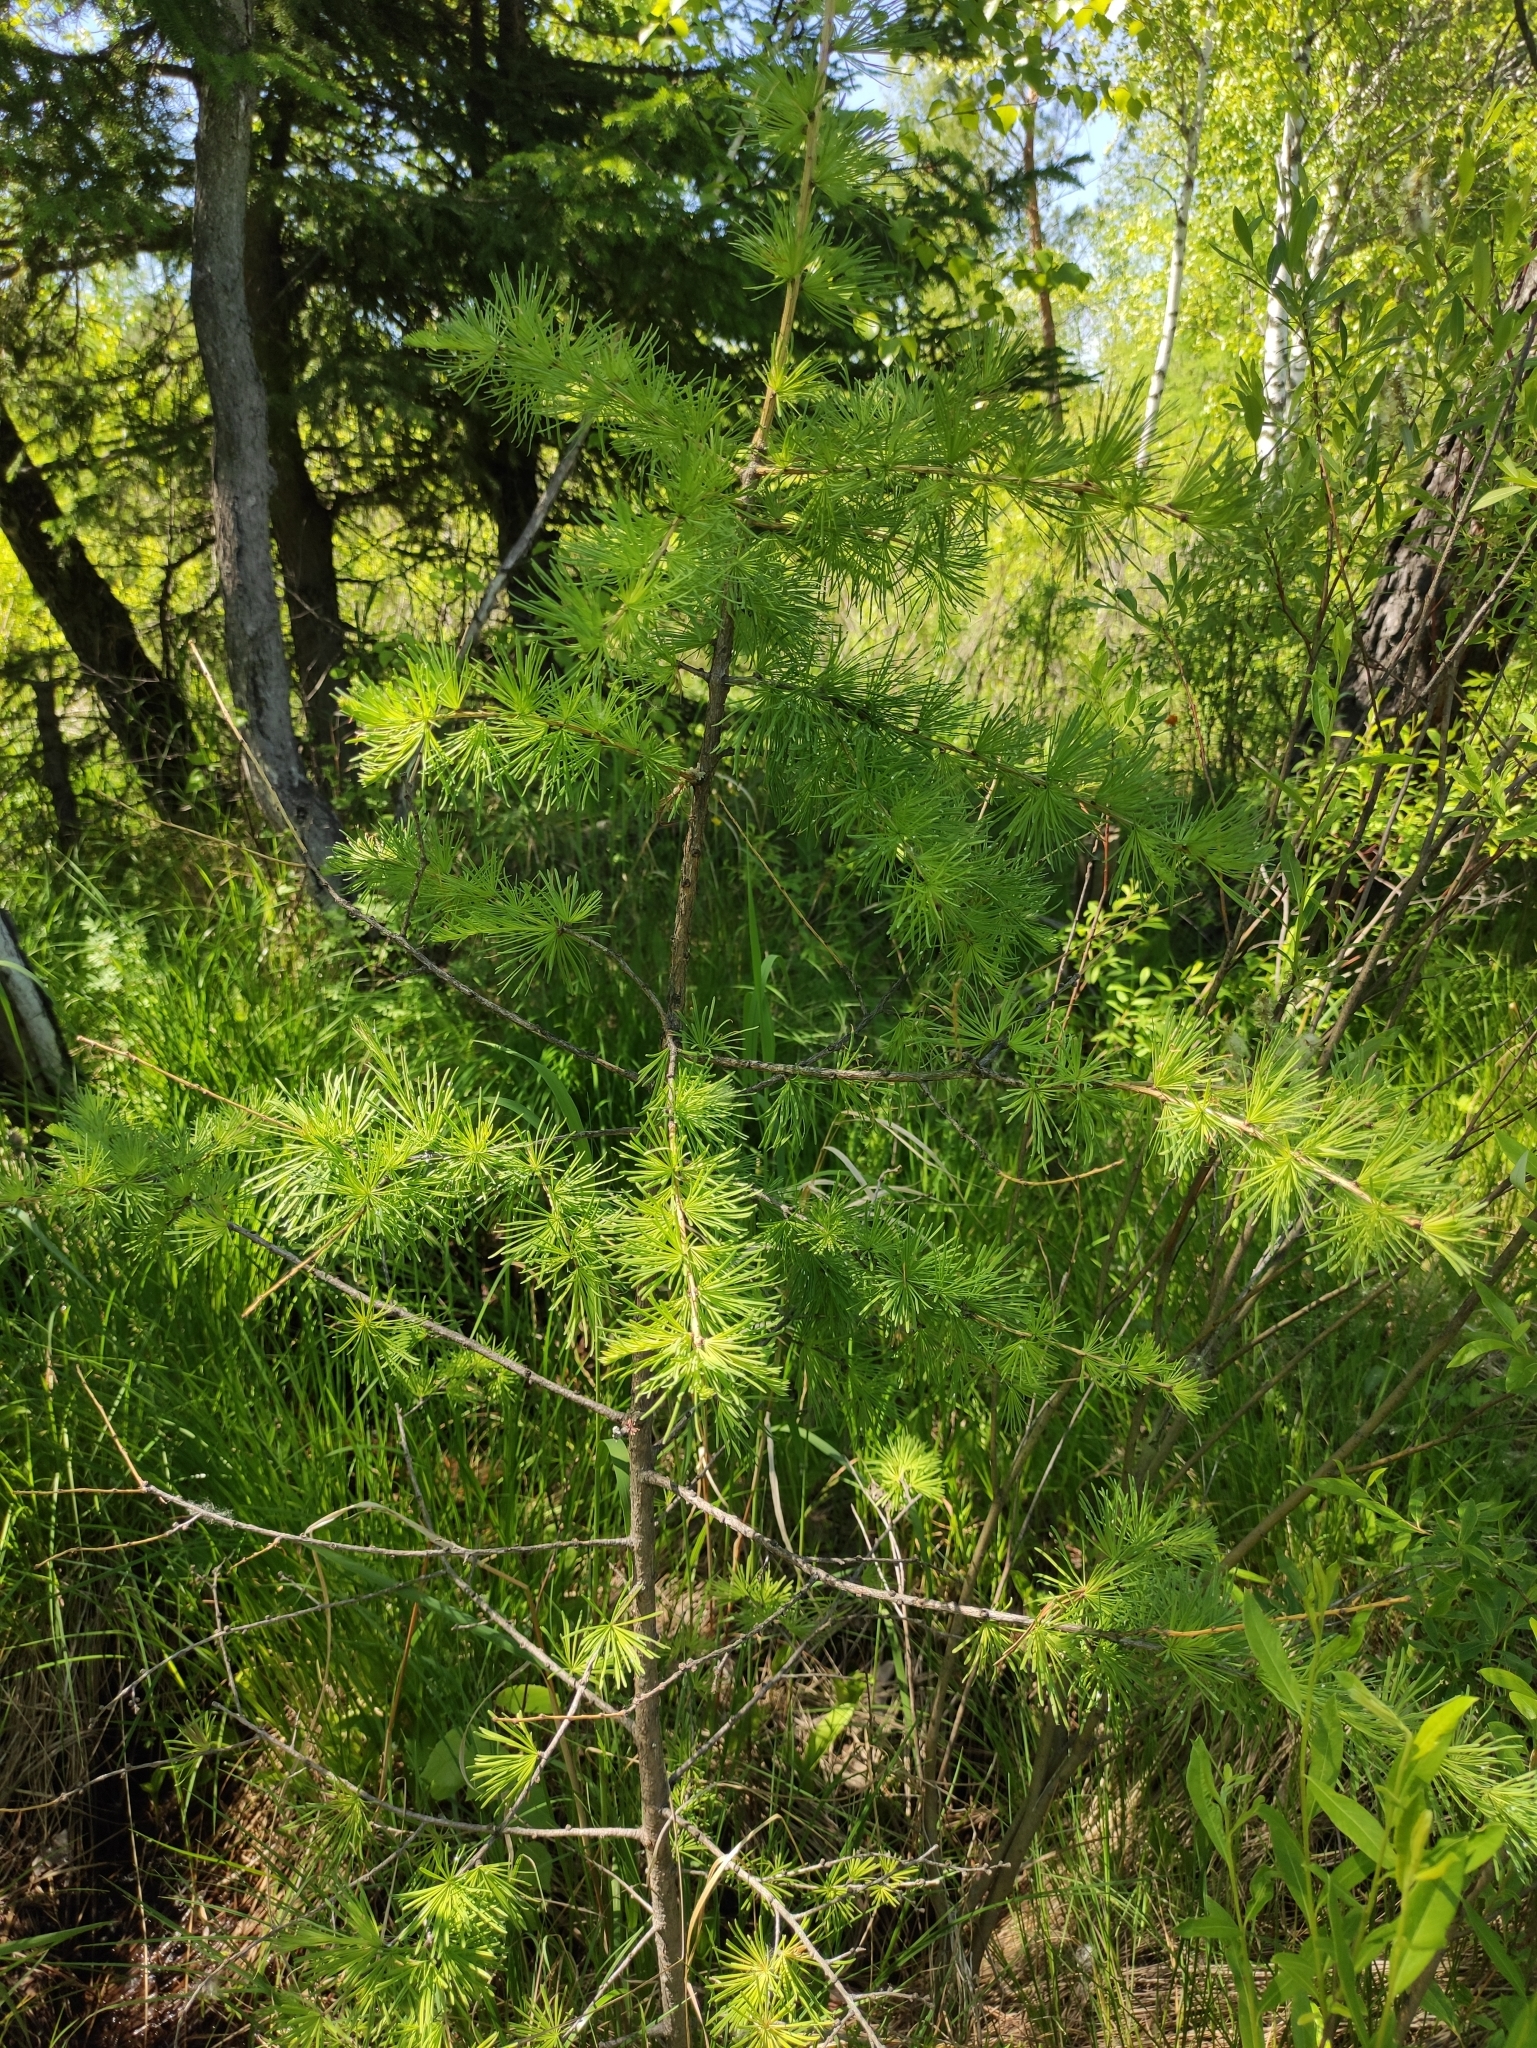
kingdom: Plantae
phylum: Tracheophyta
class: Pinopsida
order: Pinales
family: Pinaceae
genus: Larix
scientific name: Larix sibirica
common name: Siberian larch
